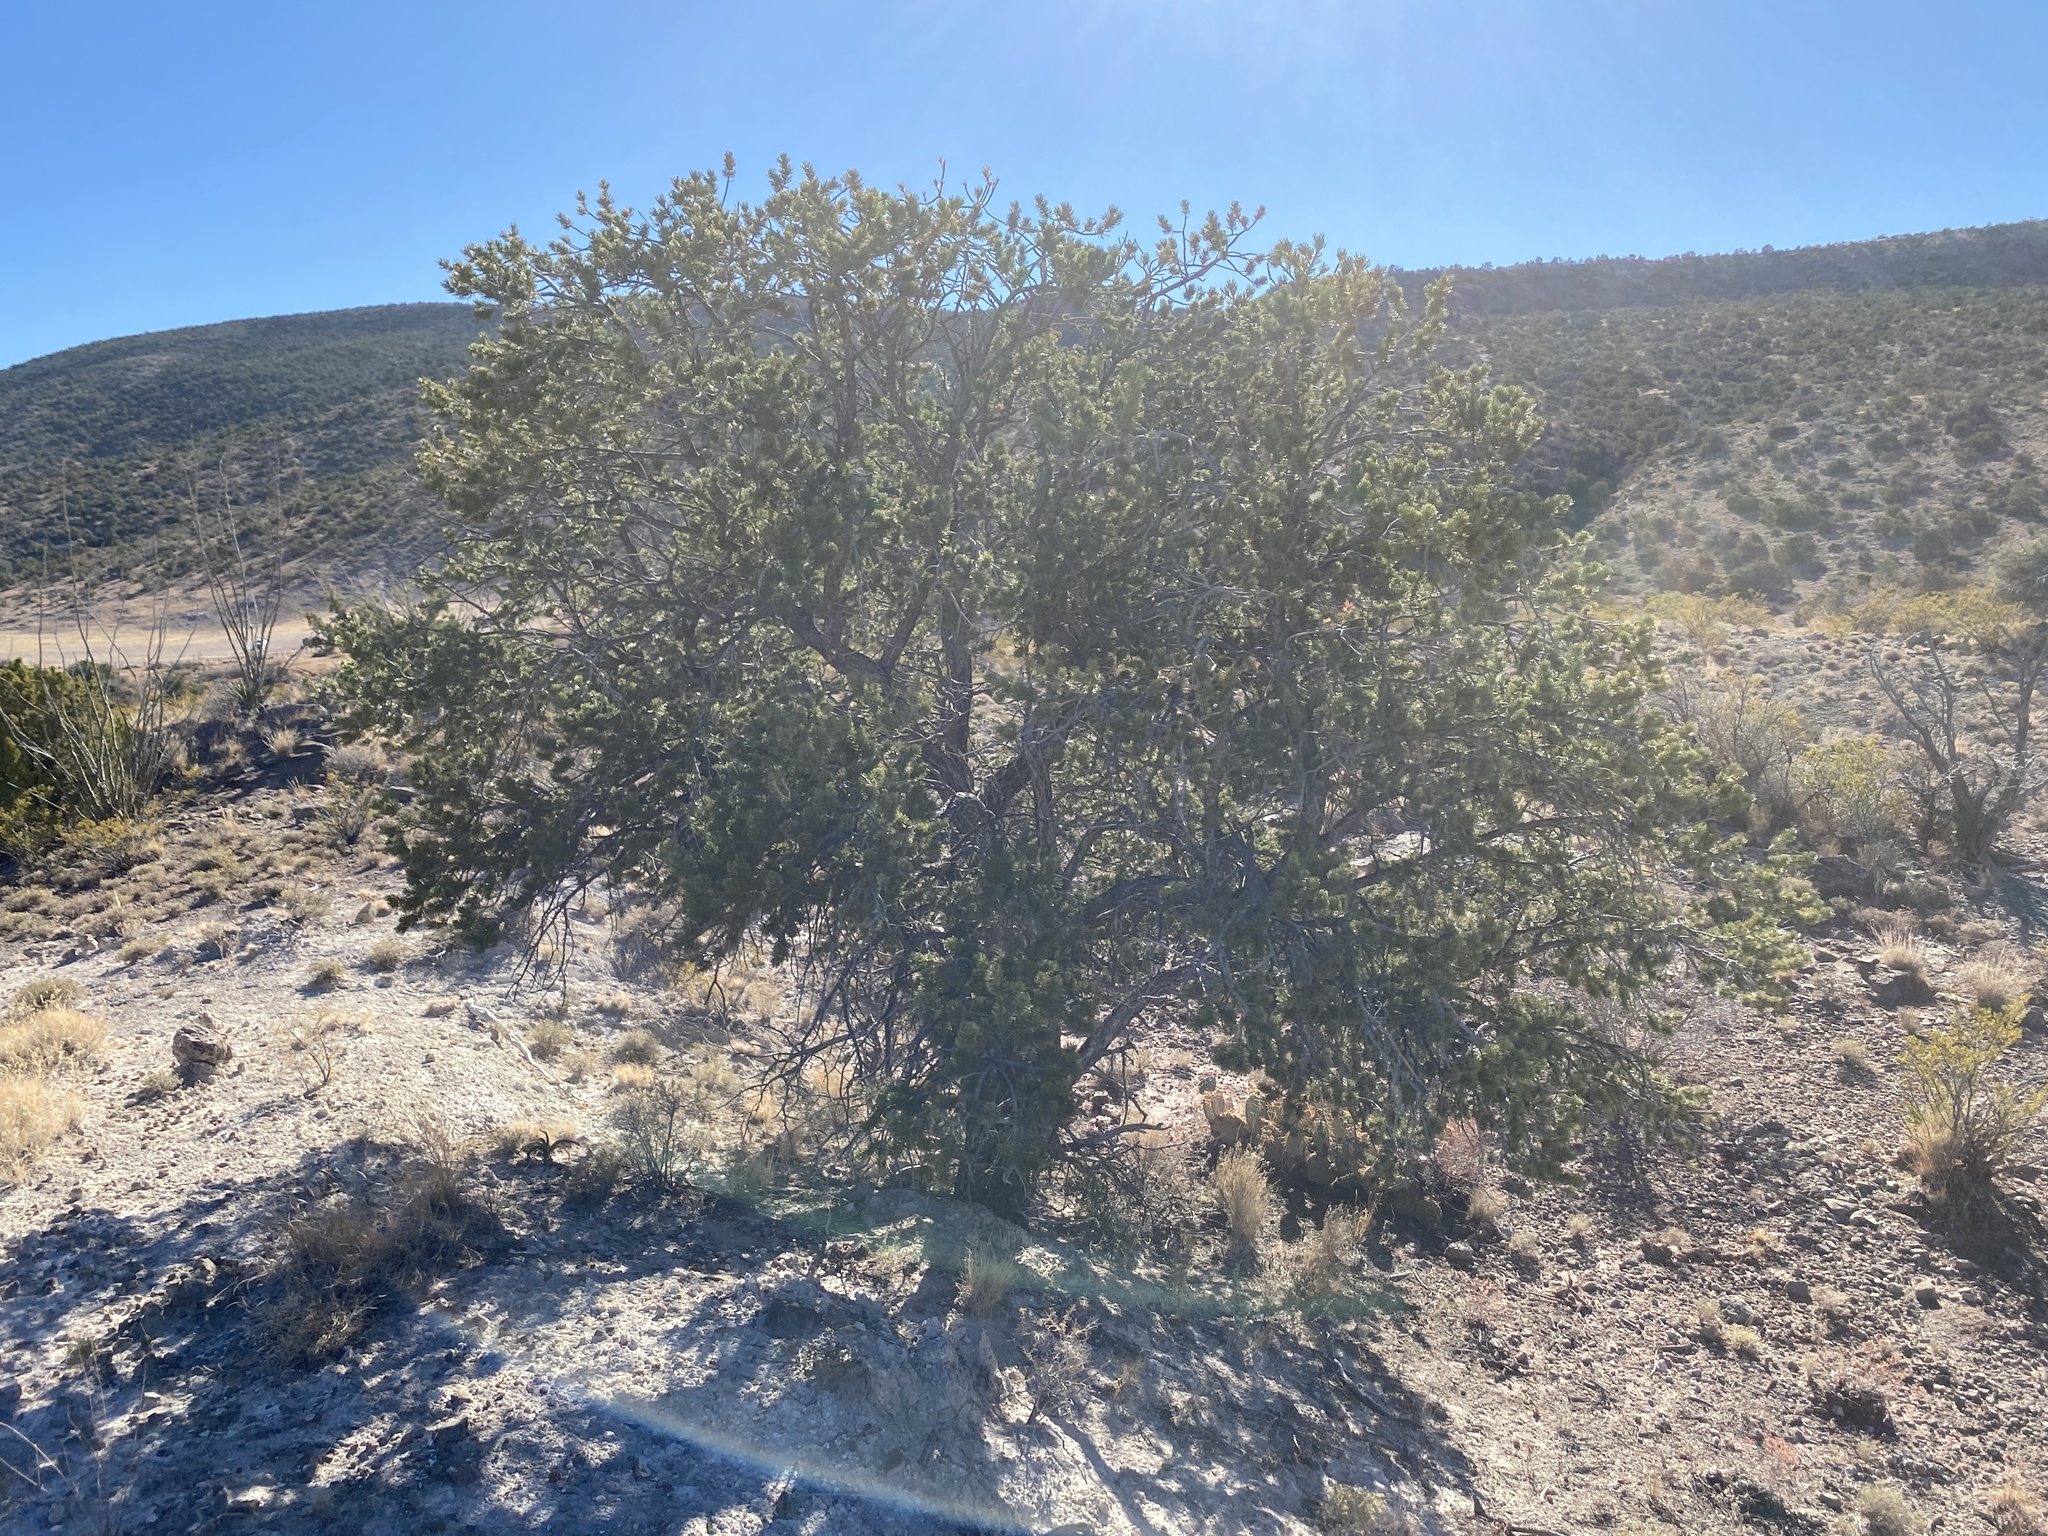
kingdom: Plantae
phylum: Tracheophyta
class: Pinopsida
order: Pinales
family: Pinaceae
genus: Pinus
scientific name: Pinus edulis
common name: Colorado pinyon
